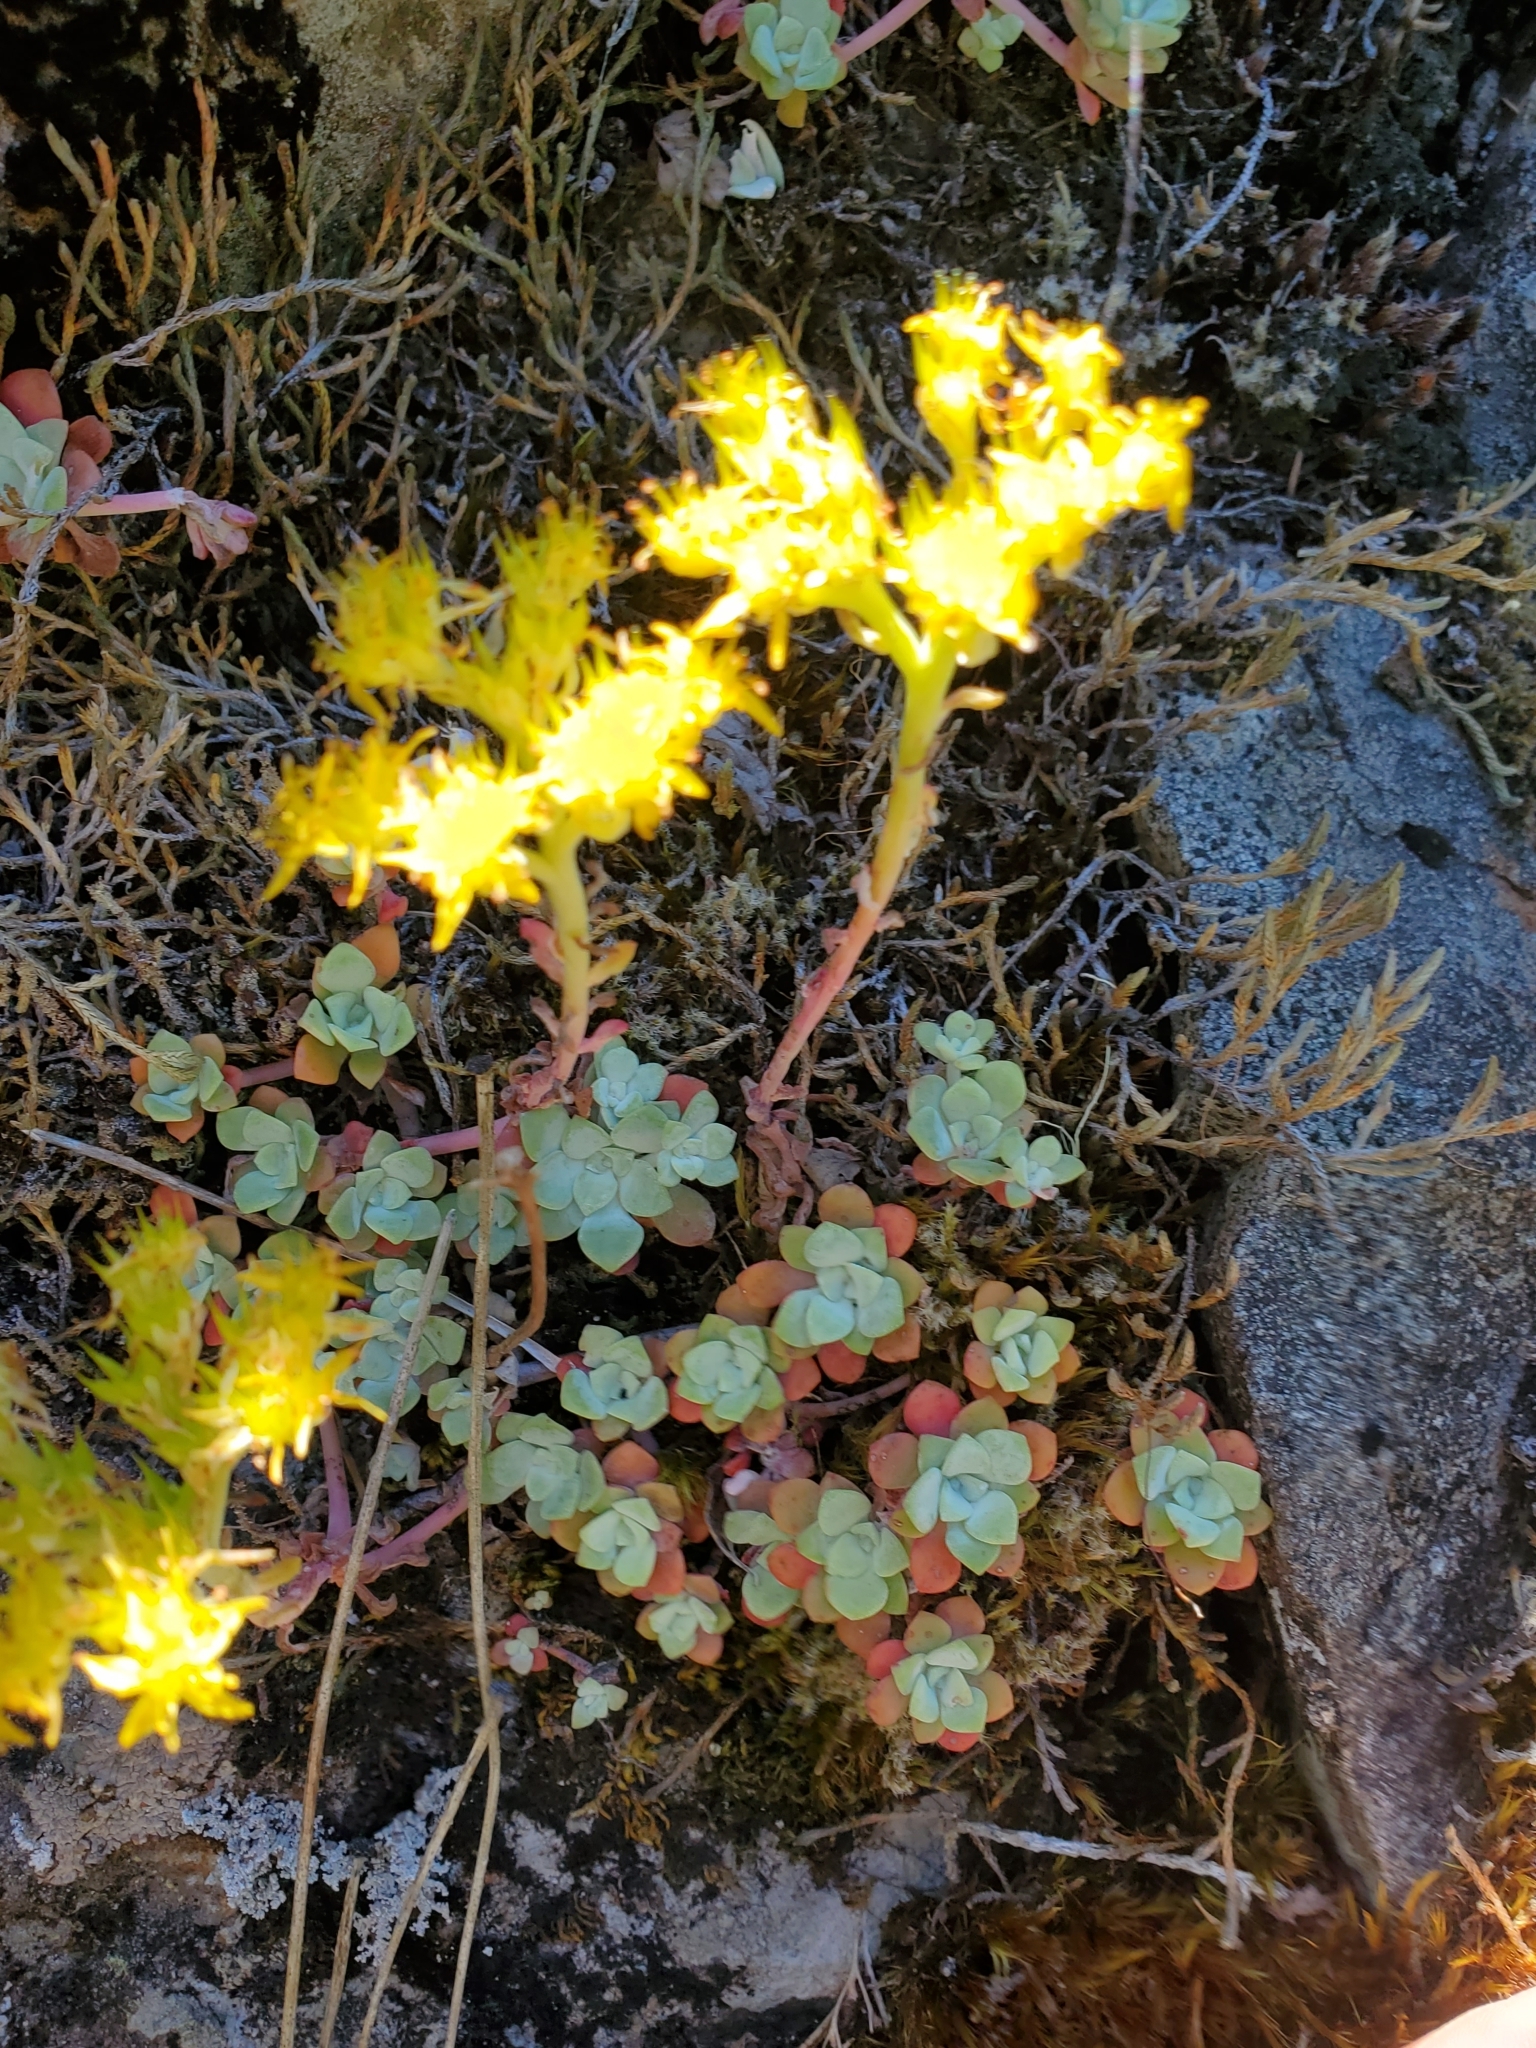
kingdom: Plantae
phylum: Tracheophyta
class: Magnoliopsida
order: Saxifragales
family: Crassulaceae
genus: Sedum
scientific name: Sedum spathulifolium
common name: Colorado stonecrop
